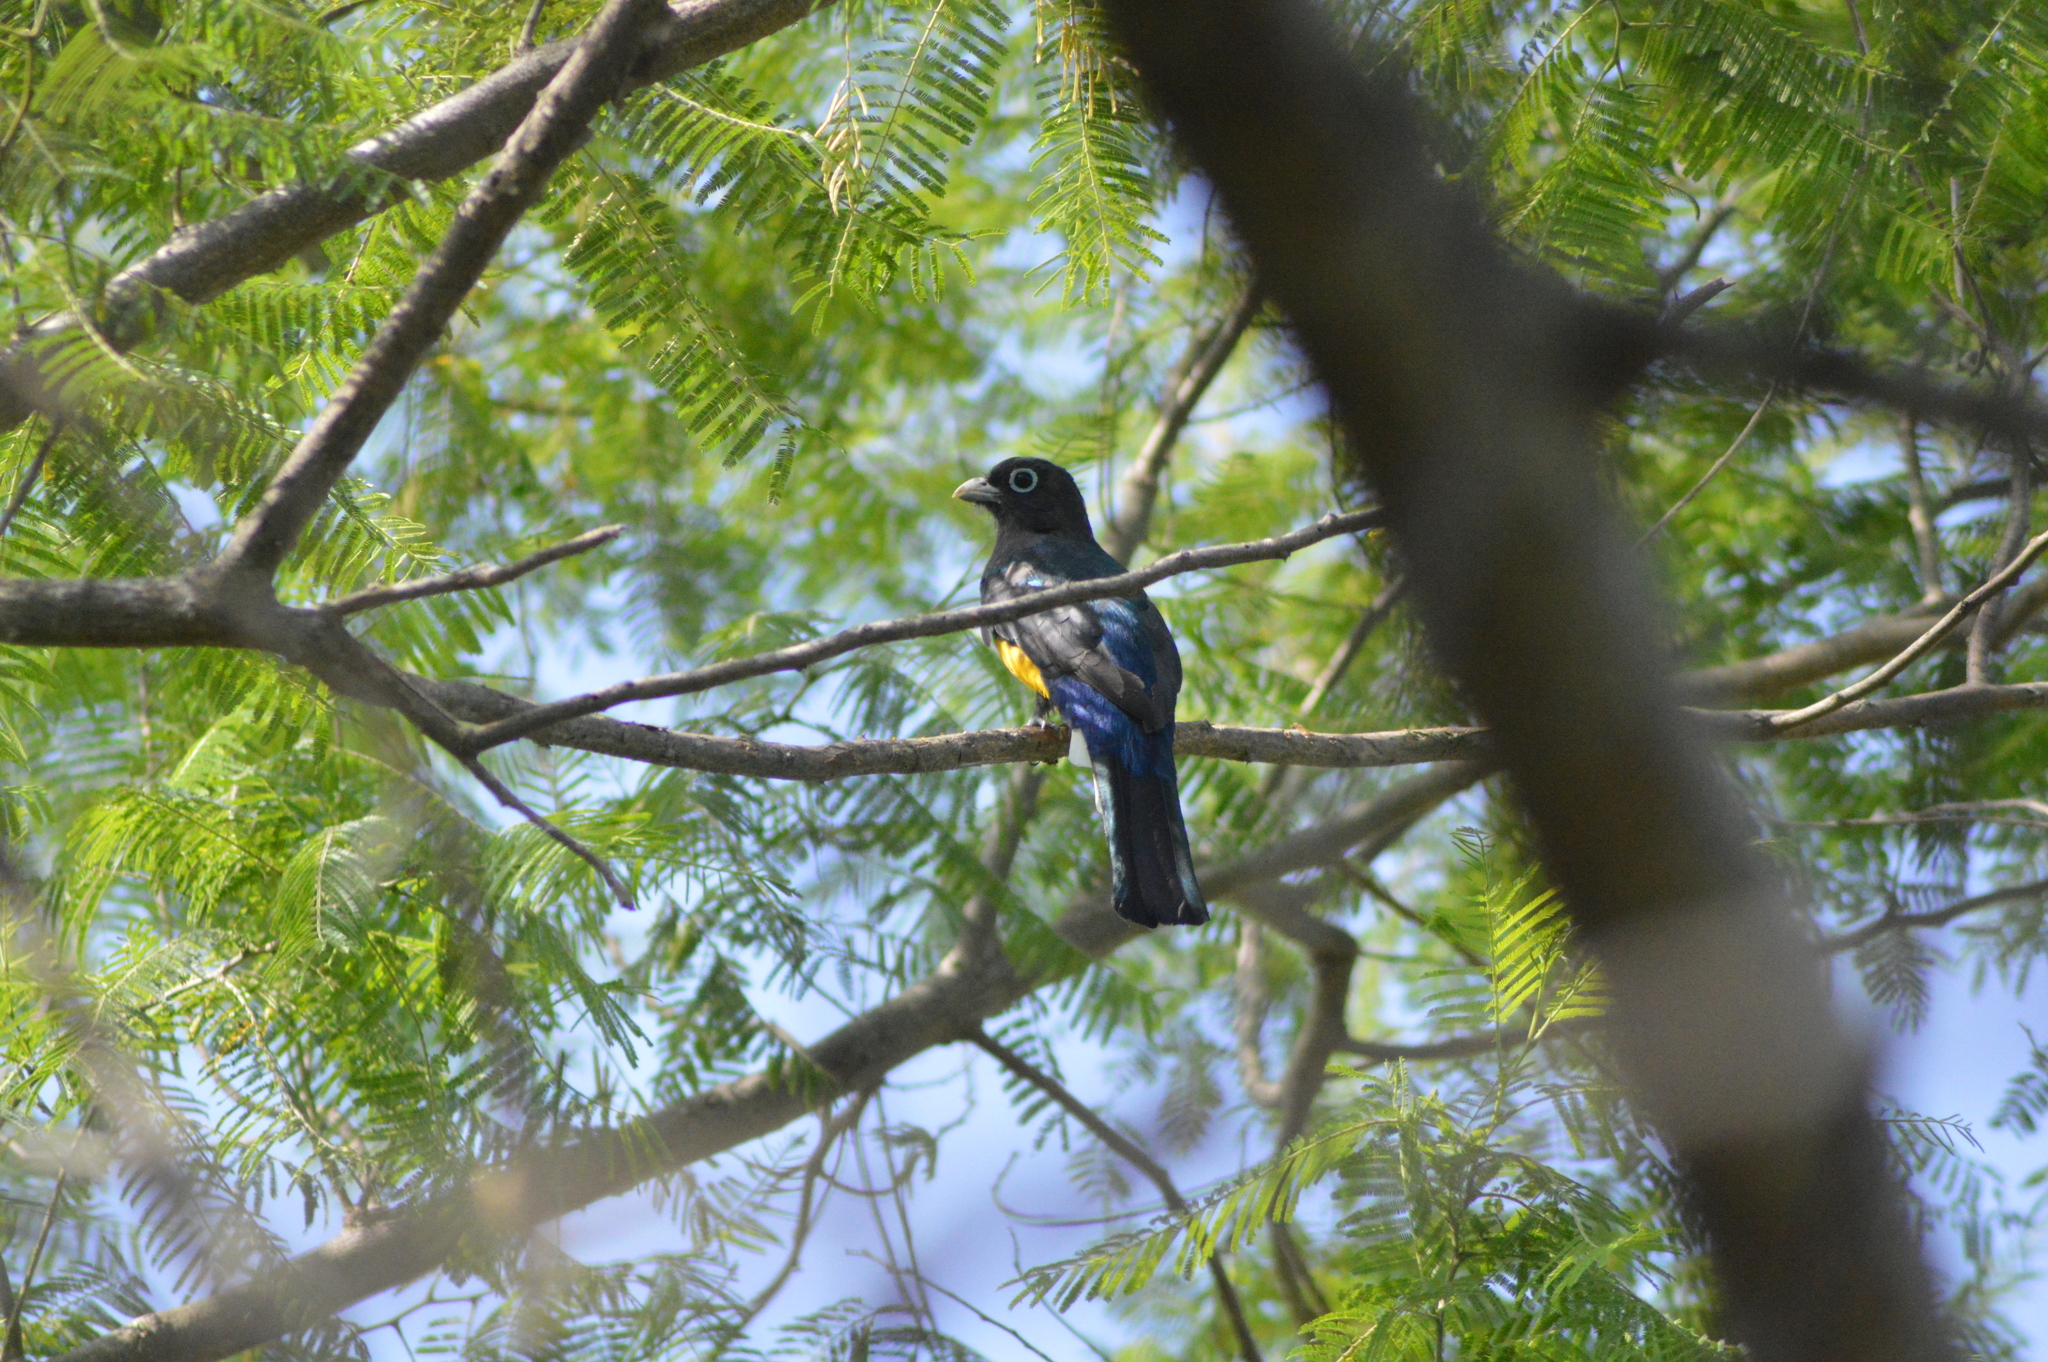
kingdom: Animalia
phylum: Chordata
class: Aves
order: Trogoniformes
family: Trogonidae
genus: Trogon
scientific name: Trogon melanocephalus
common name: Black-headed trogon
